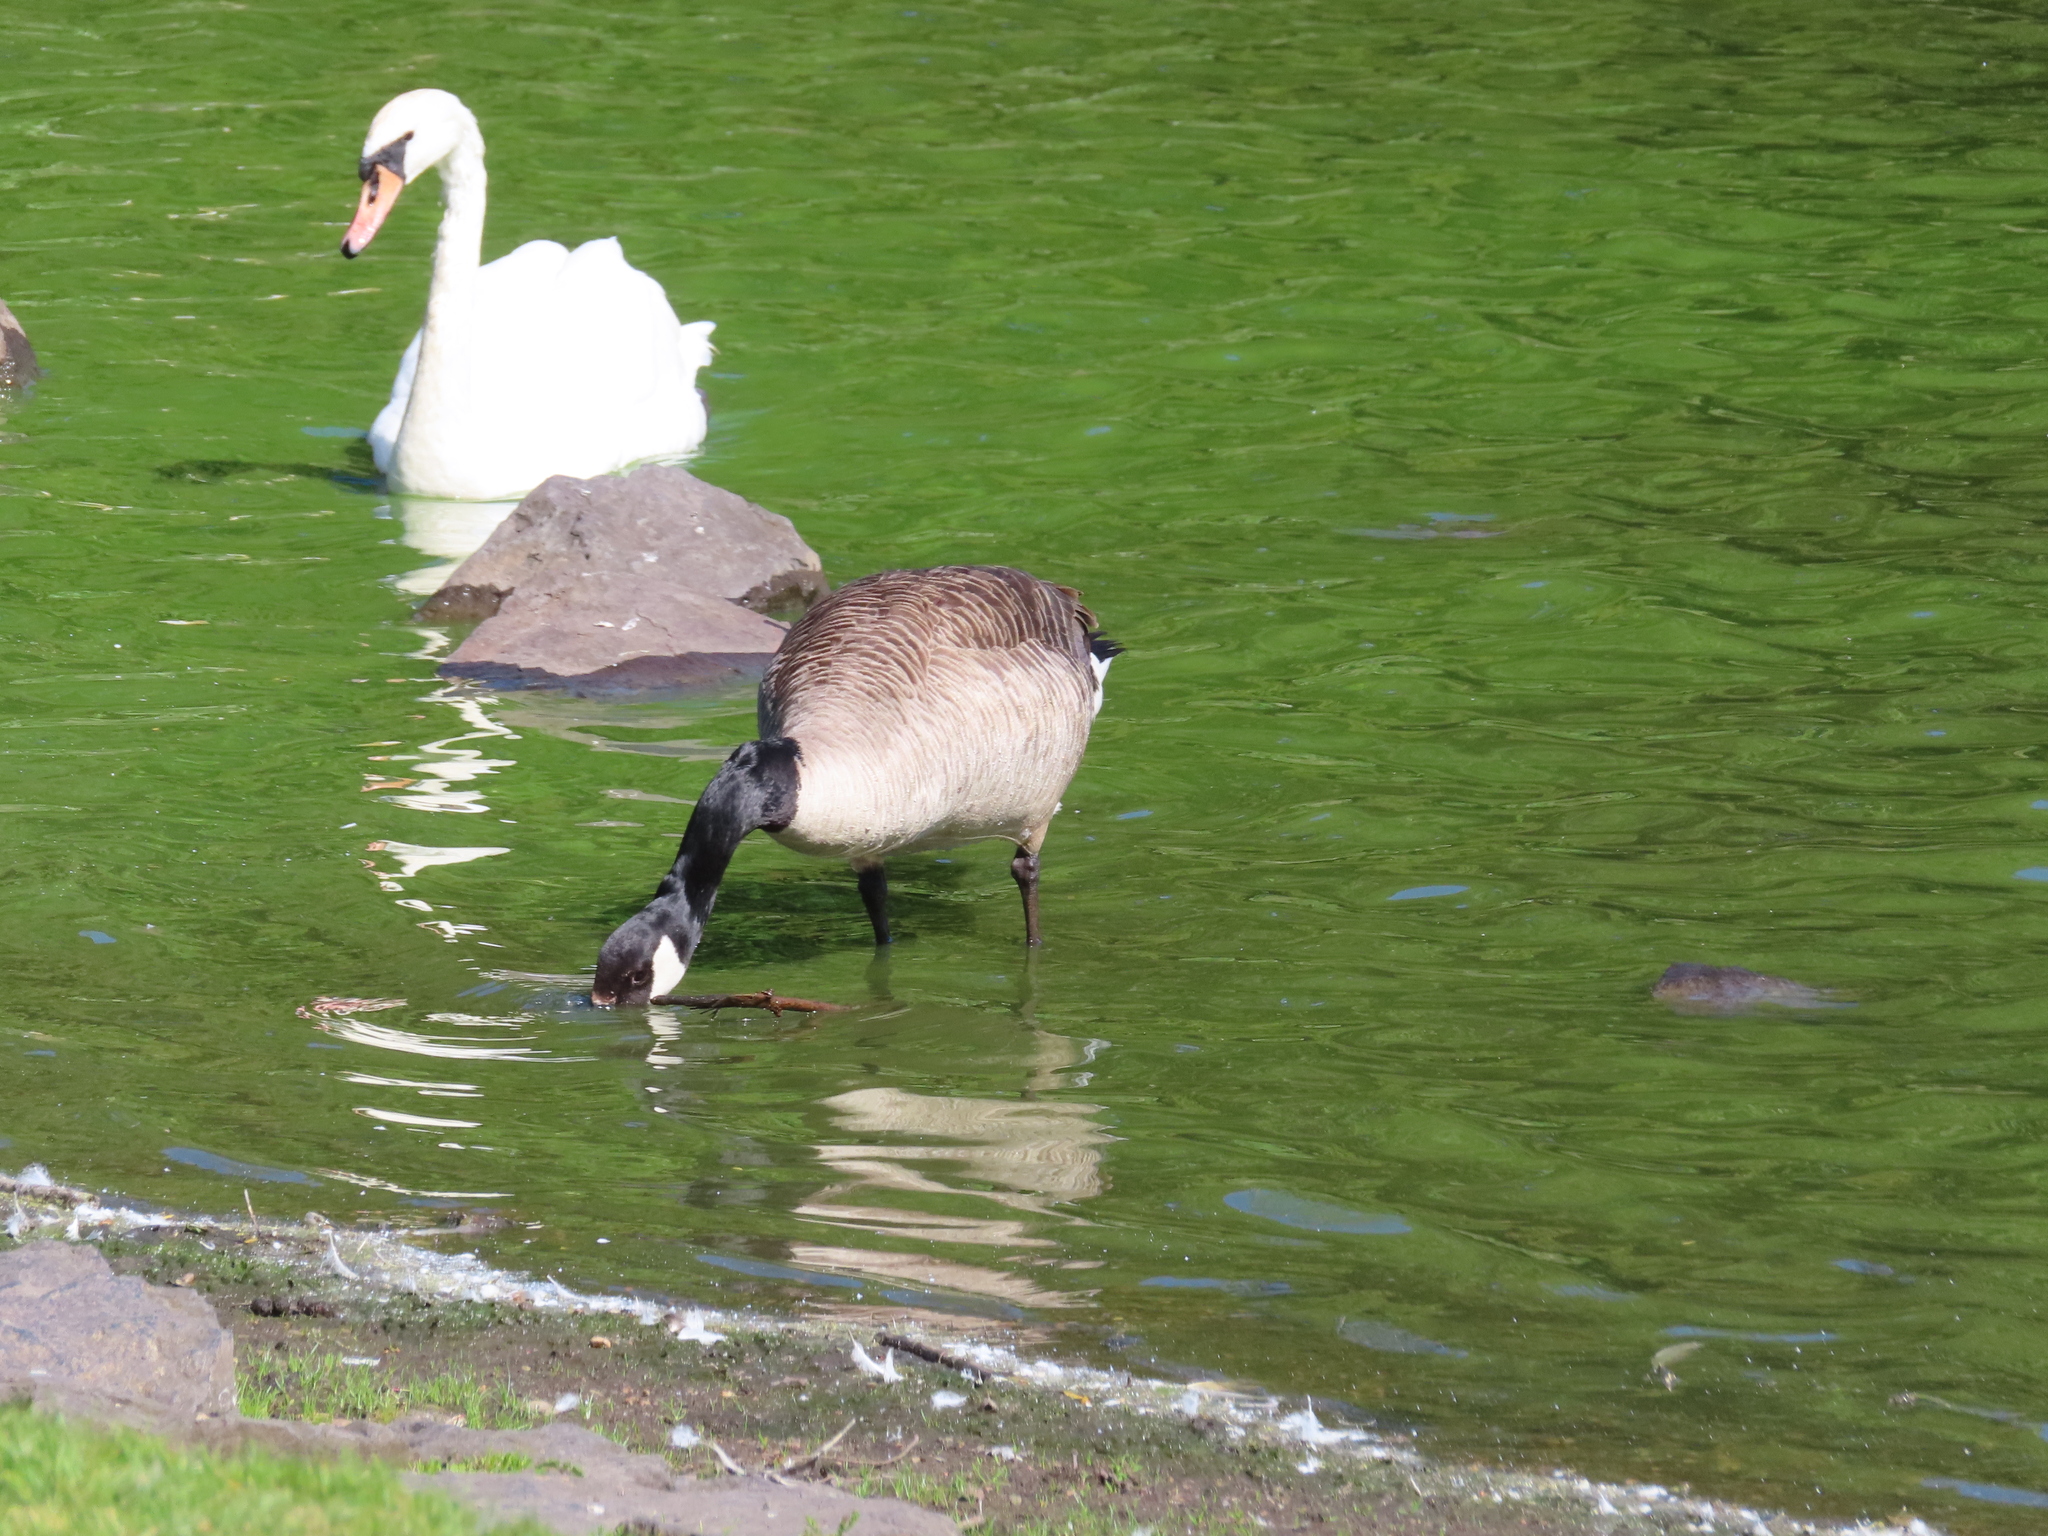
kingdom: Animalia
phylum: Chordata
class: Aves
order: Anseriformes
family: Anatidae
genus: Branta
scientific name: Branta canadensis
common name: Canada goose
